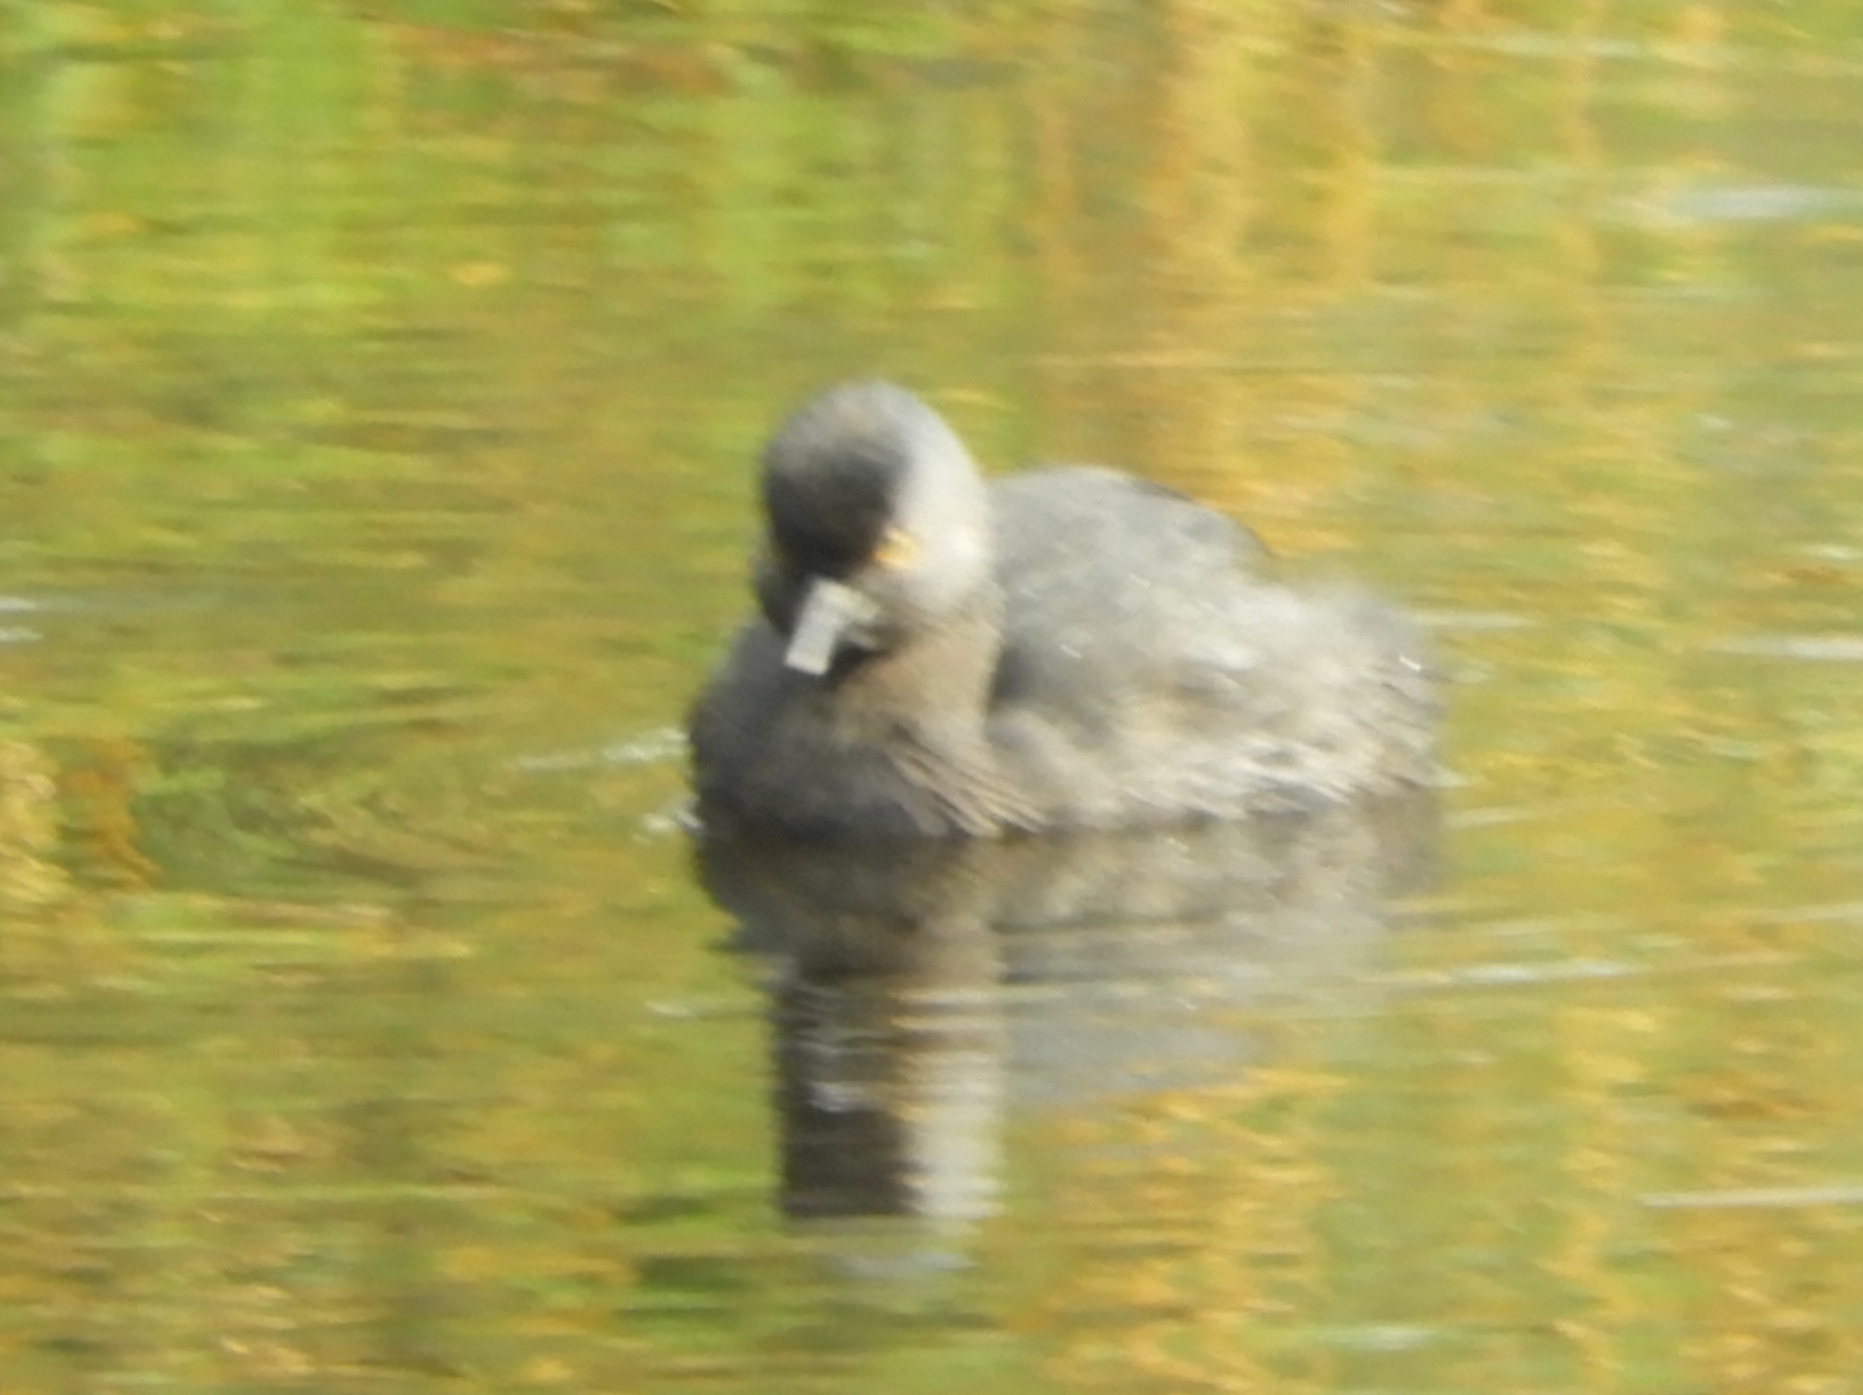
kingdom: Animalia
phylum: Chordata
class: Aves
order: Podicipediformes
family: Podicipedidae
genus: Tachybaptus
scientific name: Tachybaptus dominicus
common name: Least grebe
